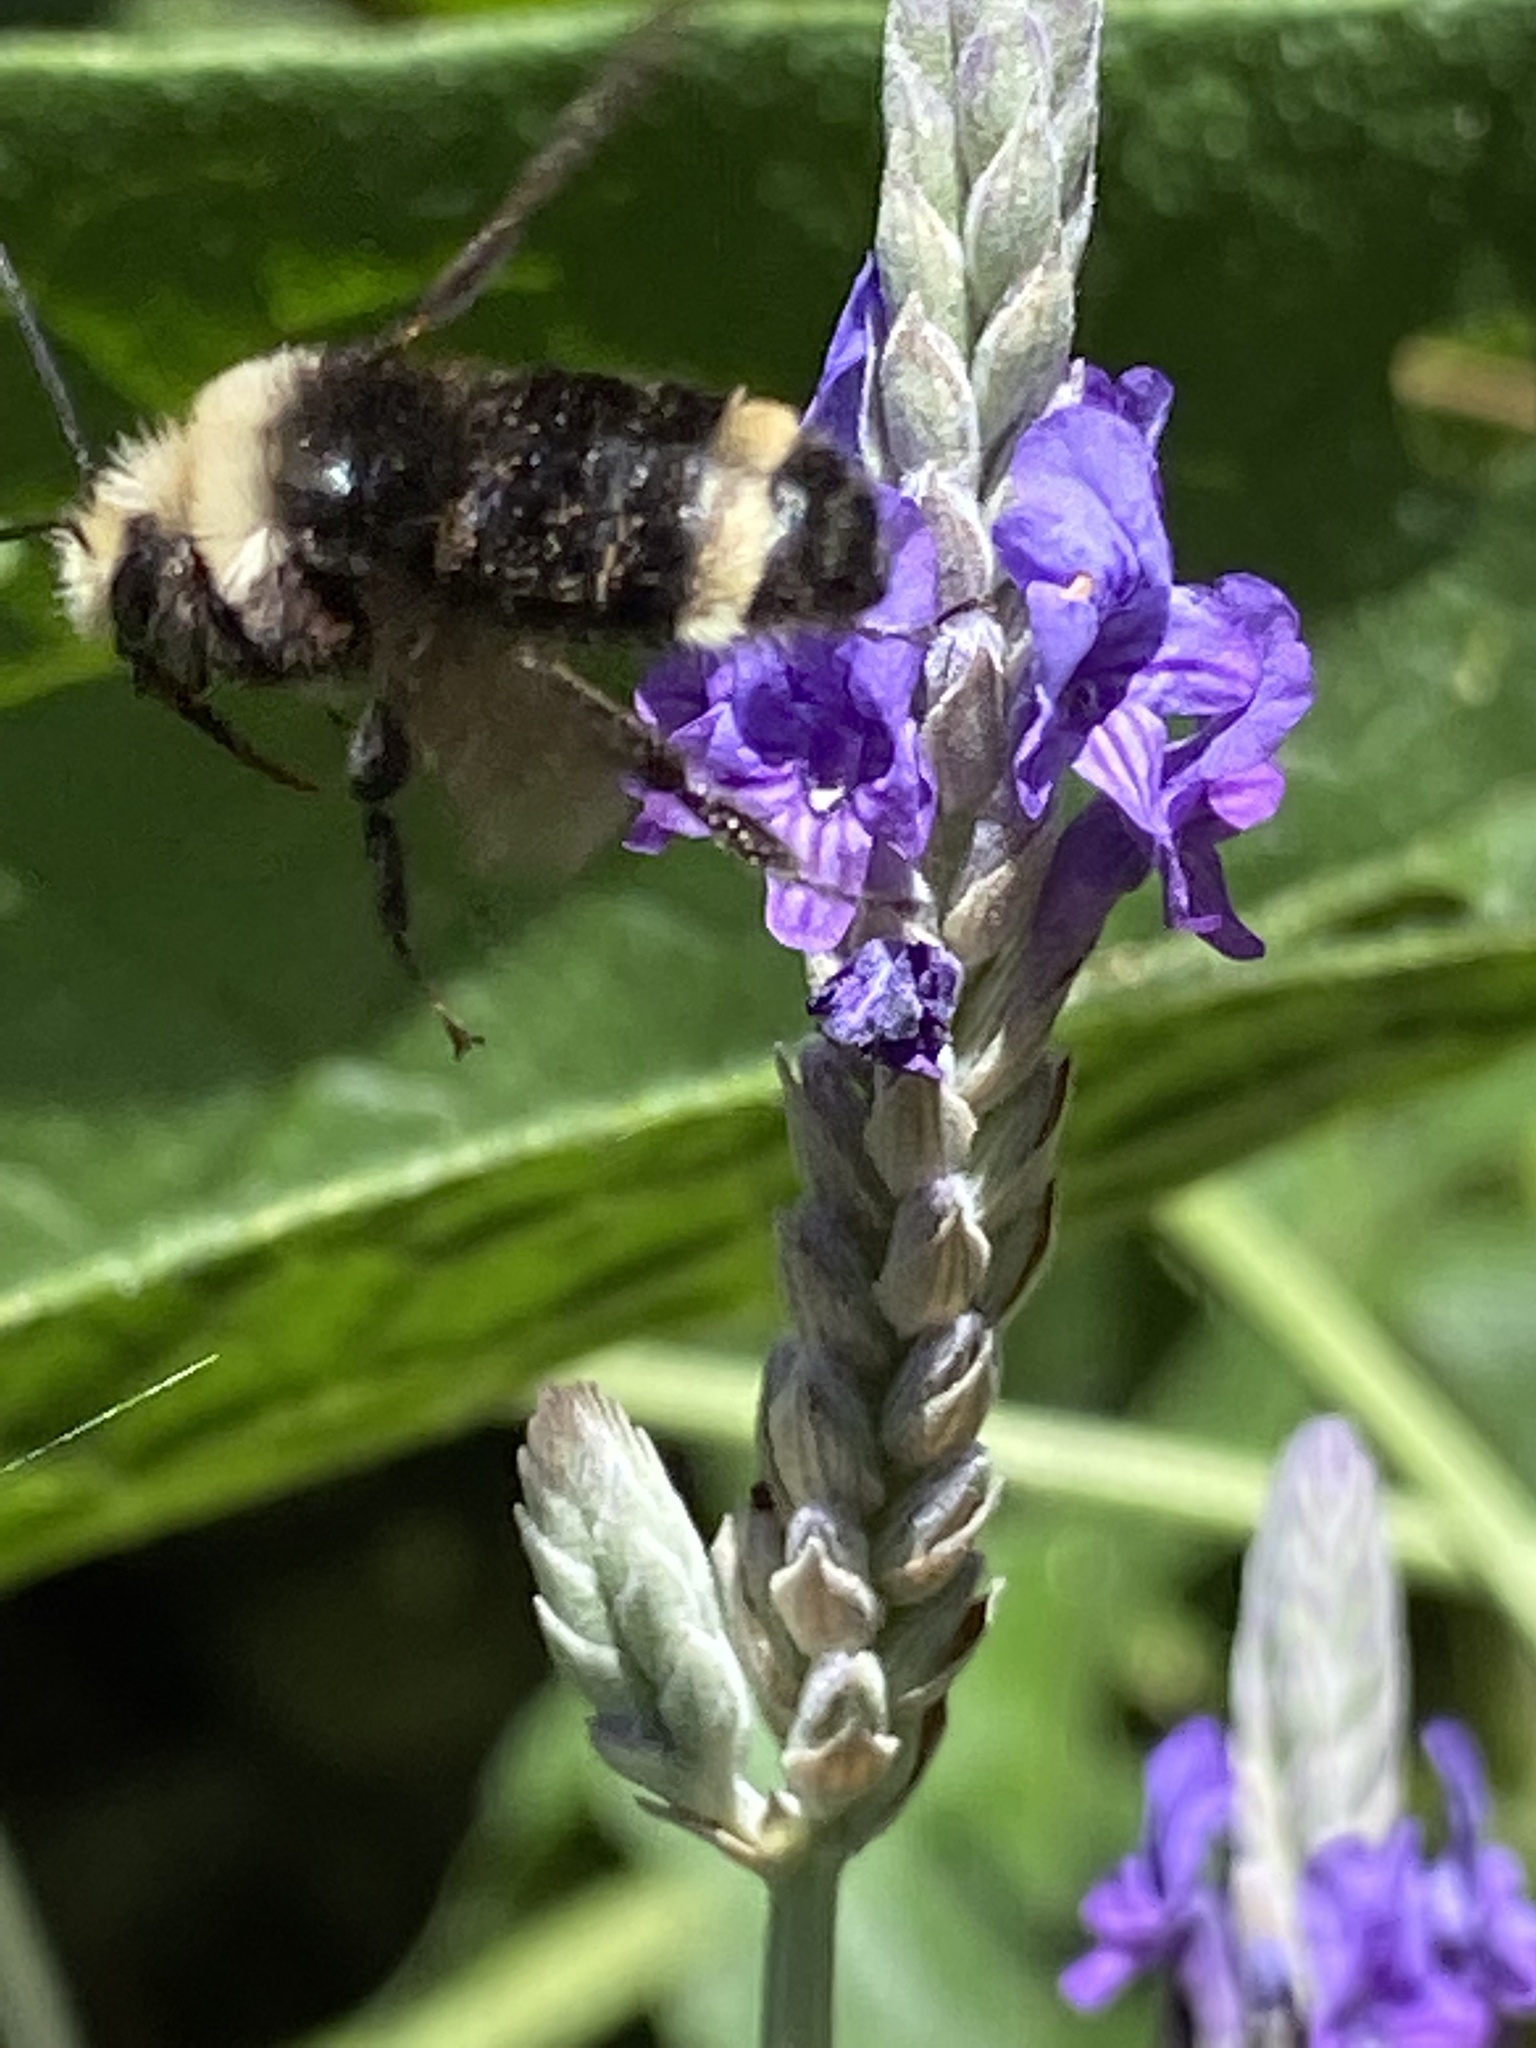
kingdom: Animalia
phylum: Arthropoda
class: Insecta
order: Hymenoptera
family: Apidae
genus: Bombus
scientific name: Bombus vosnesenskii
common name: Vosnesensky bumble bee
